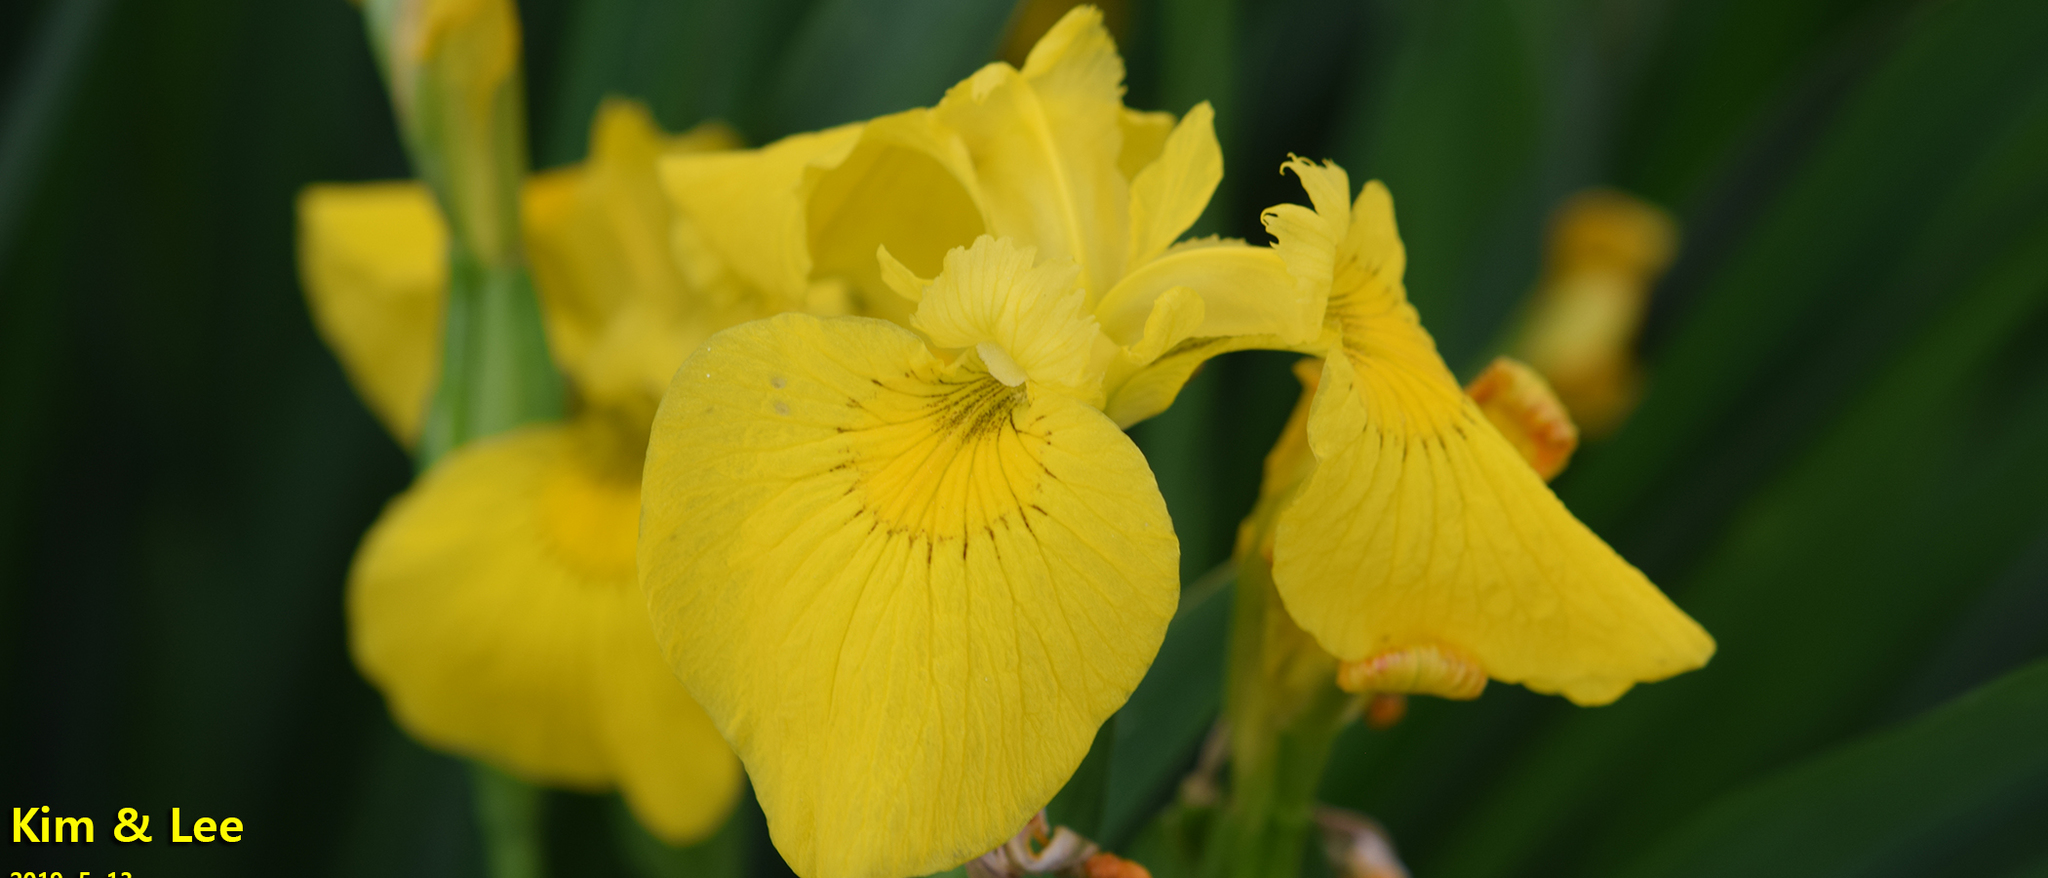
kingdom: Plantae
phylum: Tracheophyta
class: Liliopsida
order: Asparagales
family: Iridaceae
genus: Iris
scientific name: Iris pseudacorus
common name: Yellow flag
